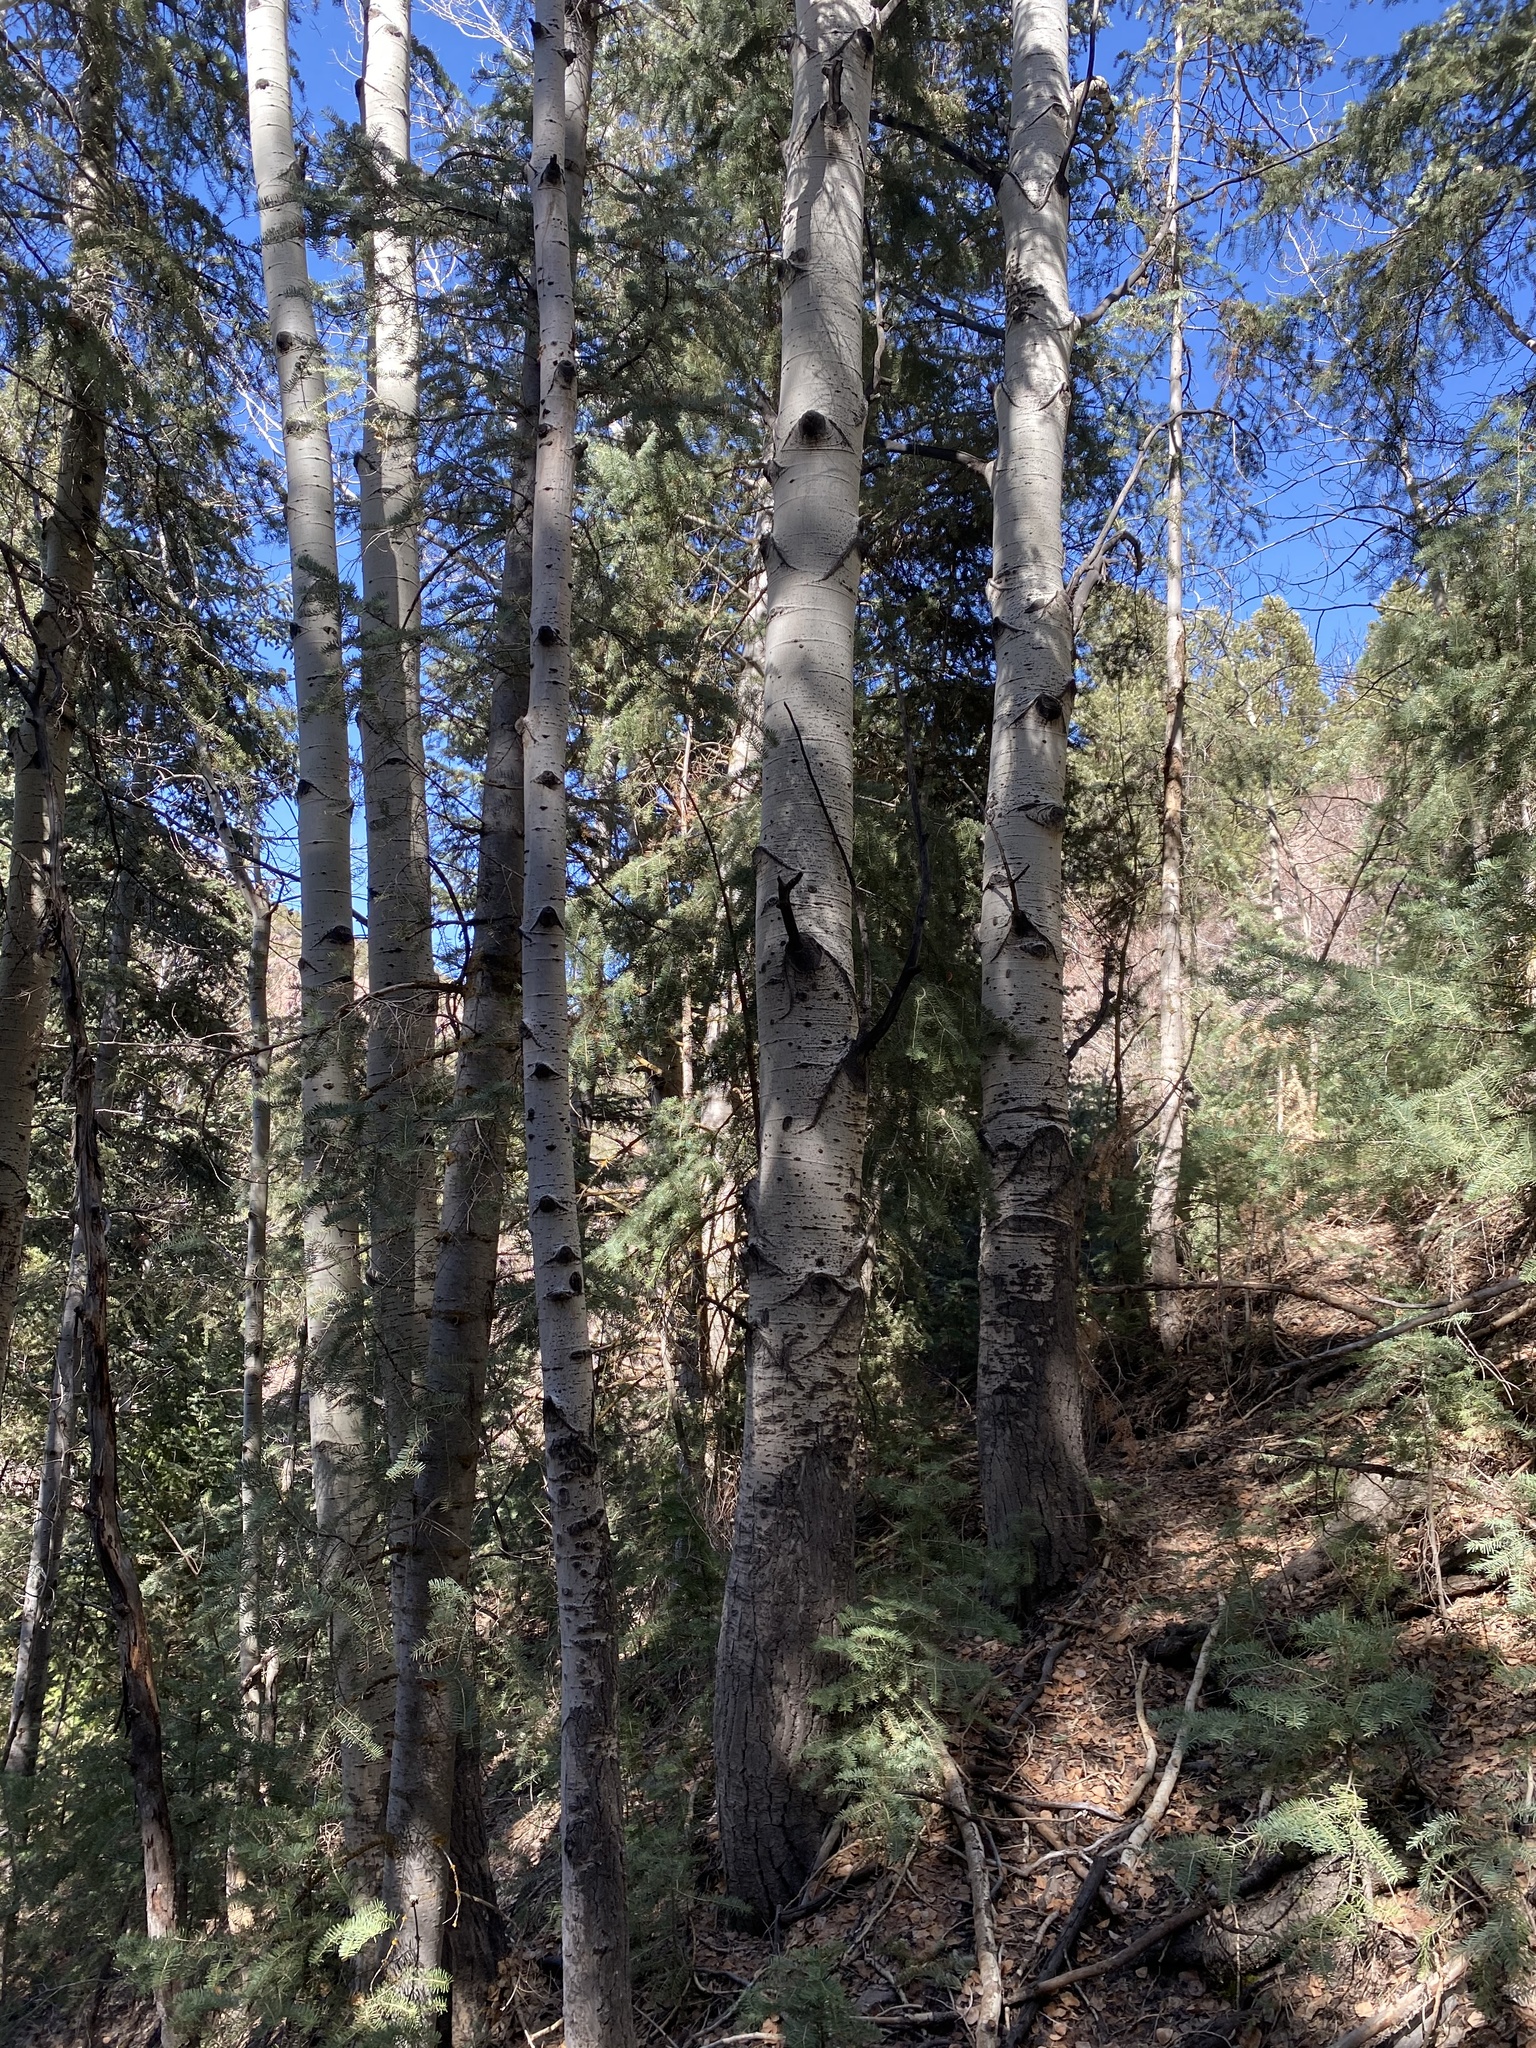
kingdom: Plantae
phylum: Tracheophyta
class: Magnoliopsida
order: Malpighiales
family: Salicaceae
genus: Populus
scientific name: Populus tremuloides
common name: Quaking aspen
